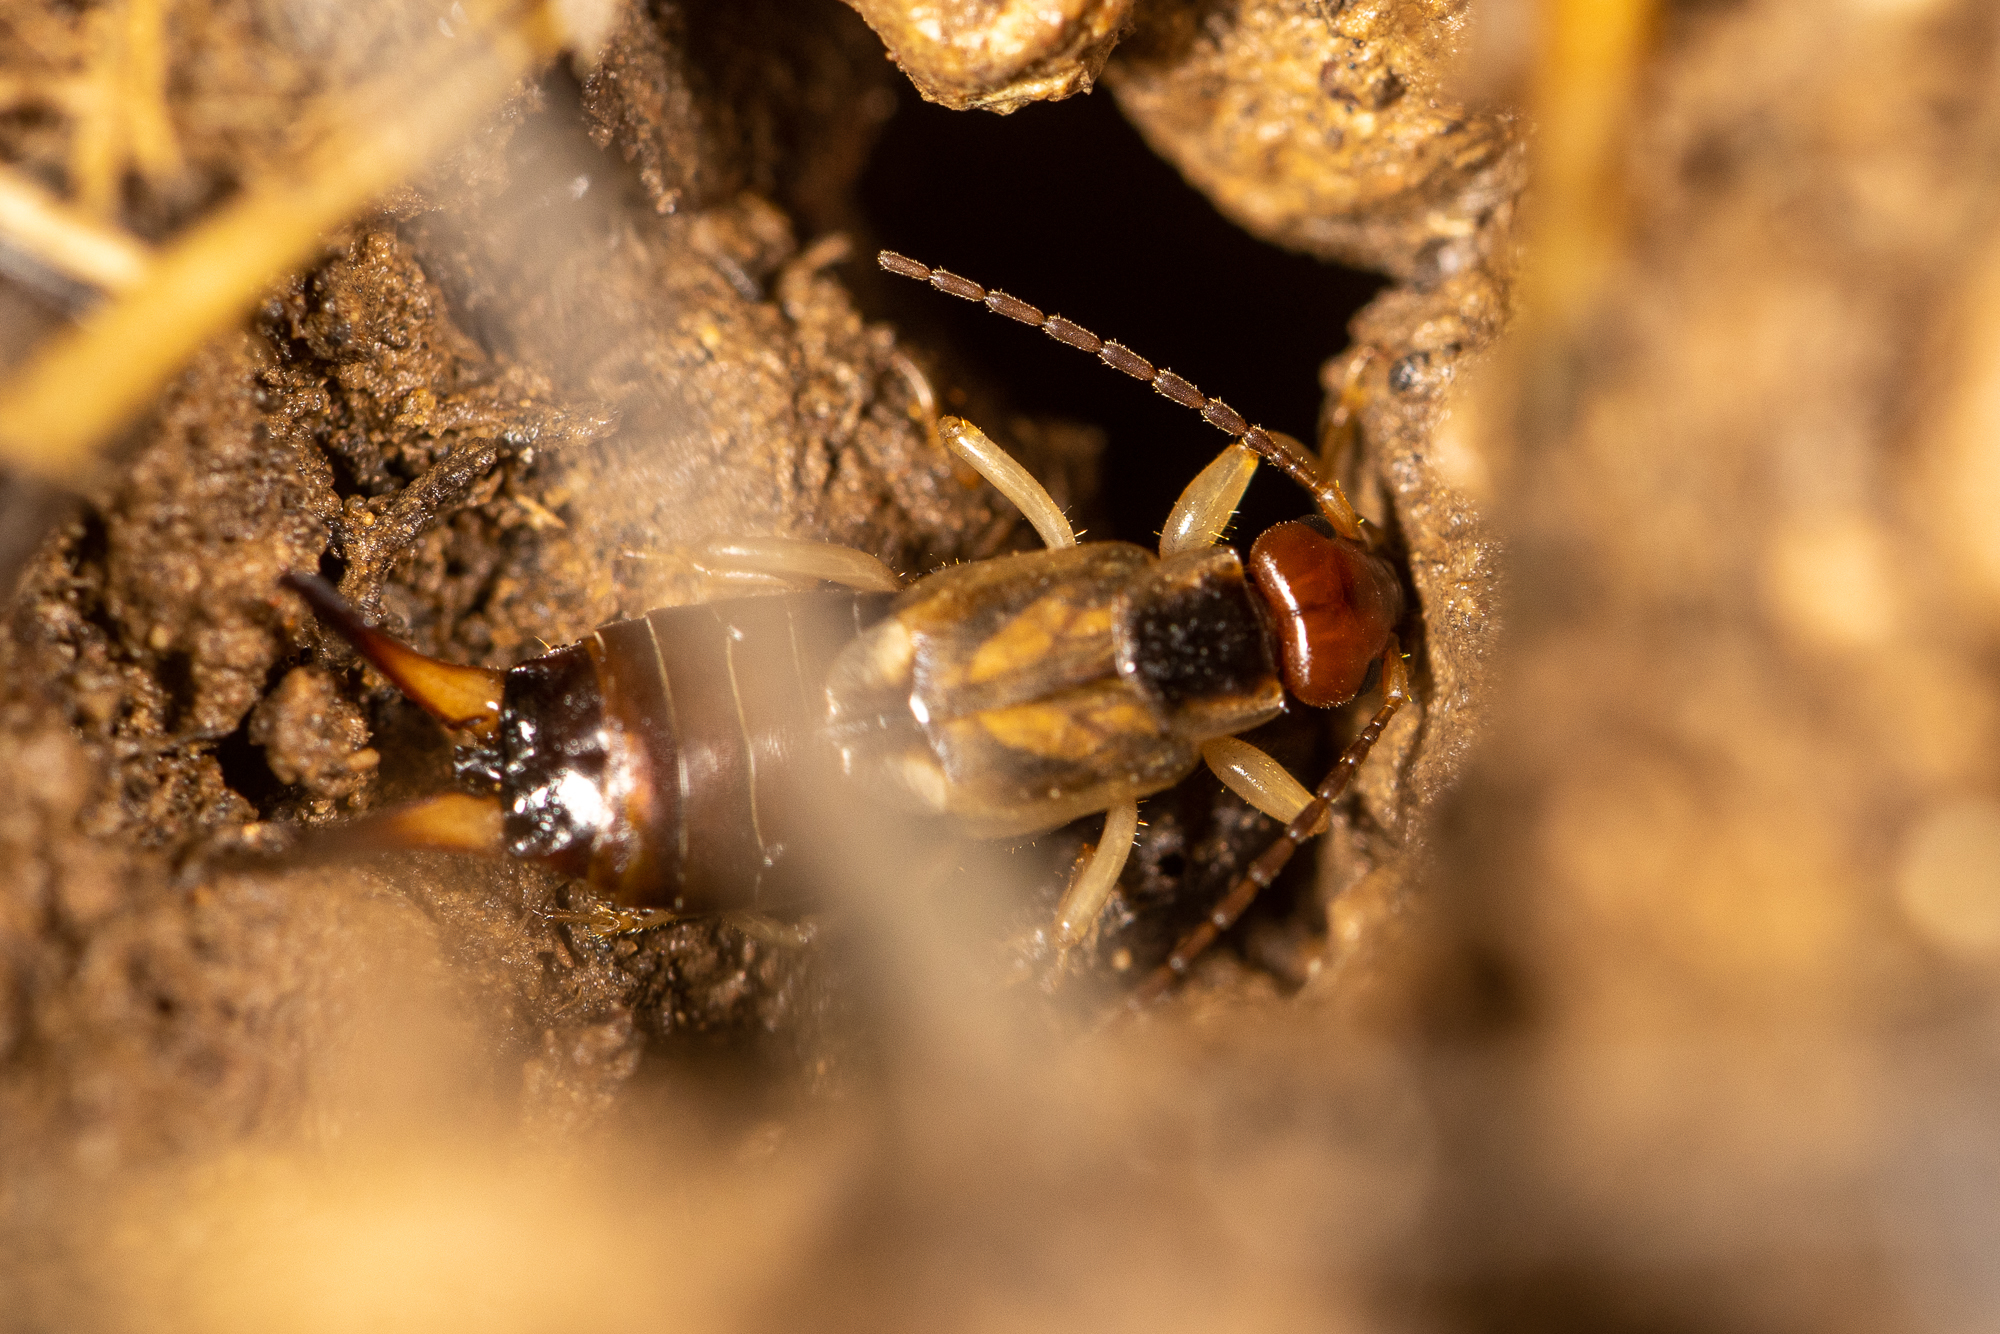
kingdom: Animalia
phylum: Arthropoda
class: Insecta
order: Dermaptera
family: Forficulidae
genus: Forficula
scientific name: Forficula
